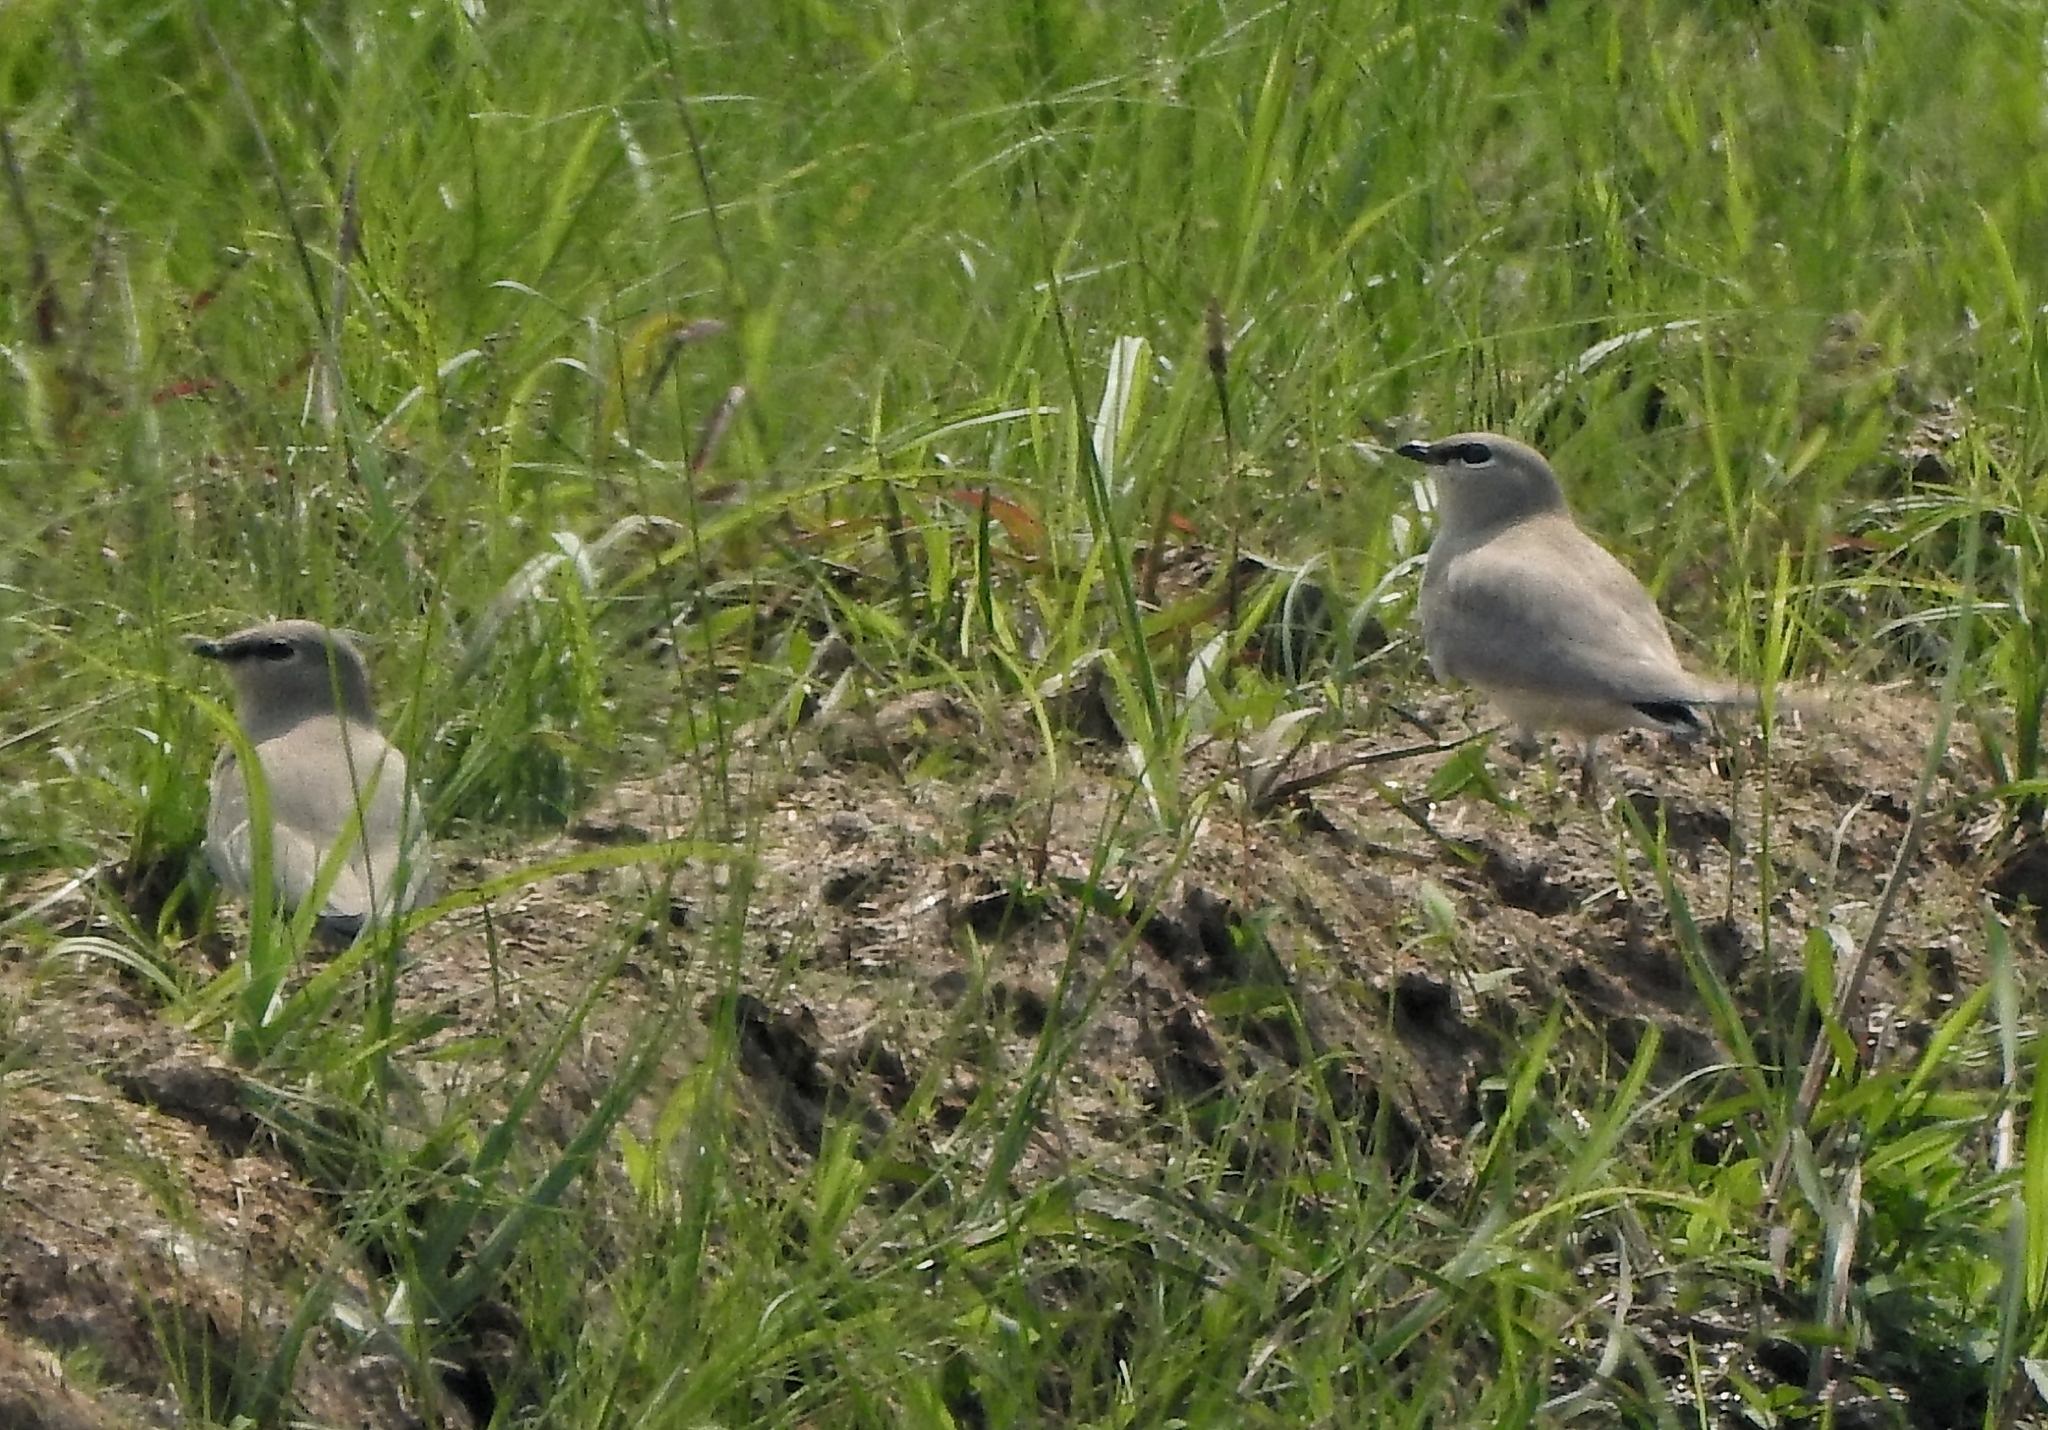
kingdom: Animalia
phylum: Chordata
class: Aves
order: Charadriiformes
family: Glareolidae
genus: Glareola
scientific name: Glareola lactea
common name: Small pratincole
